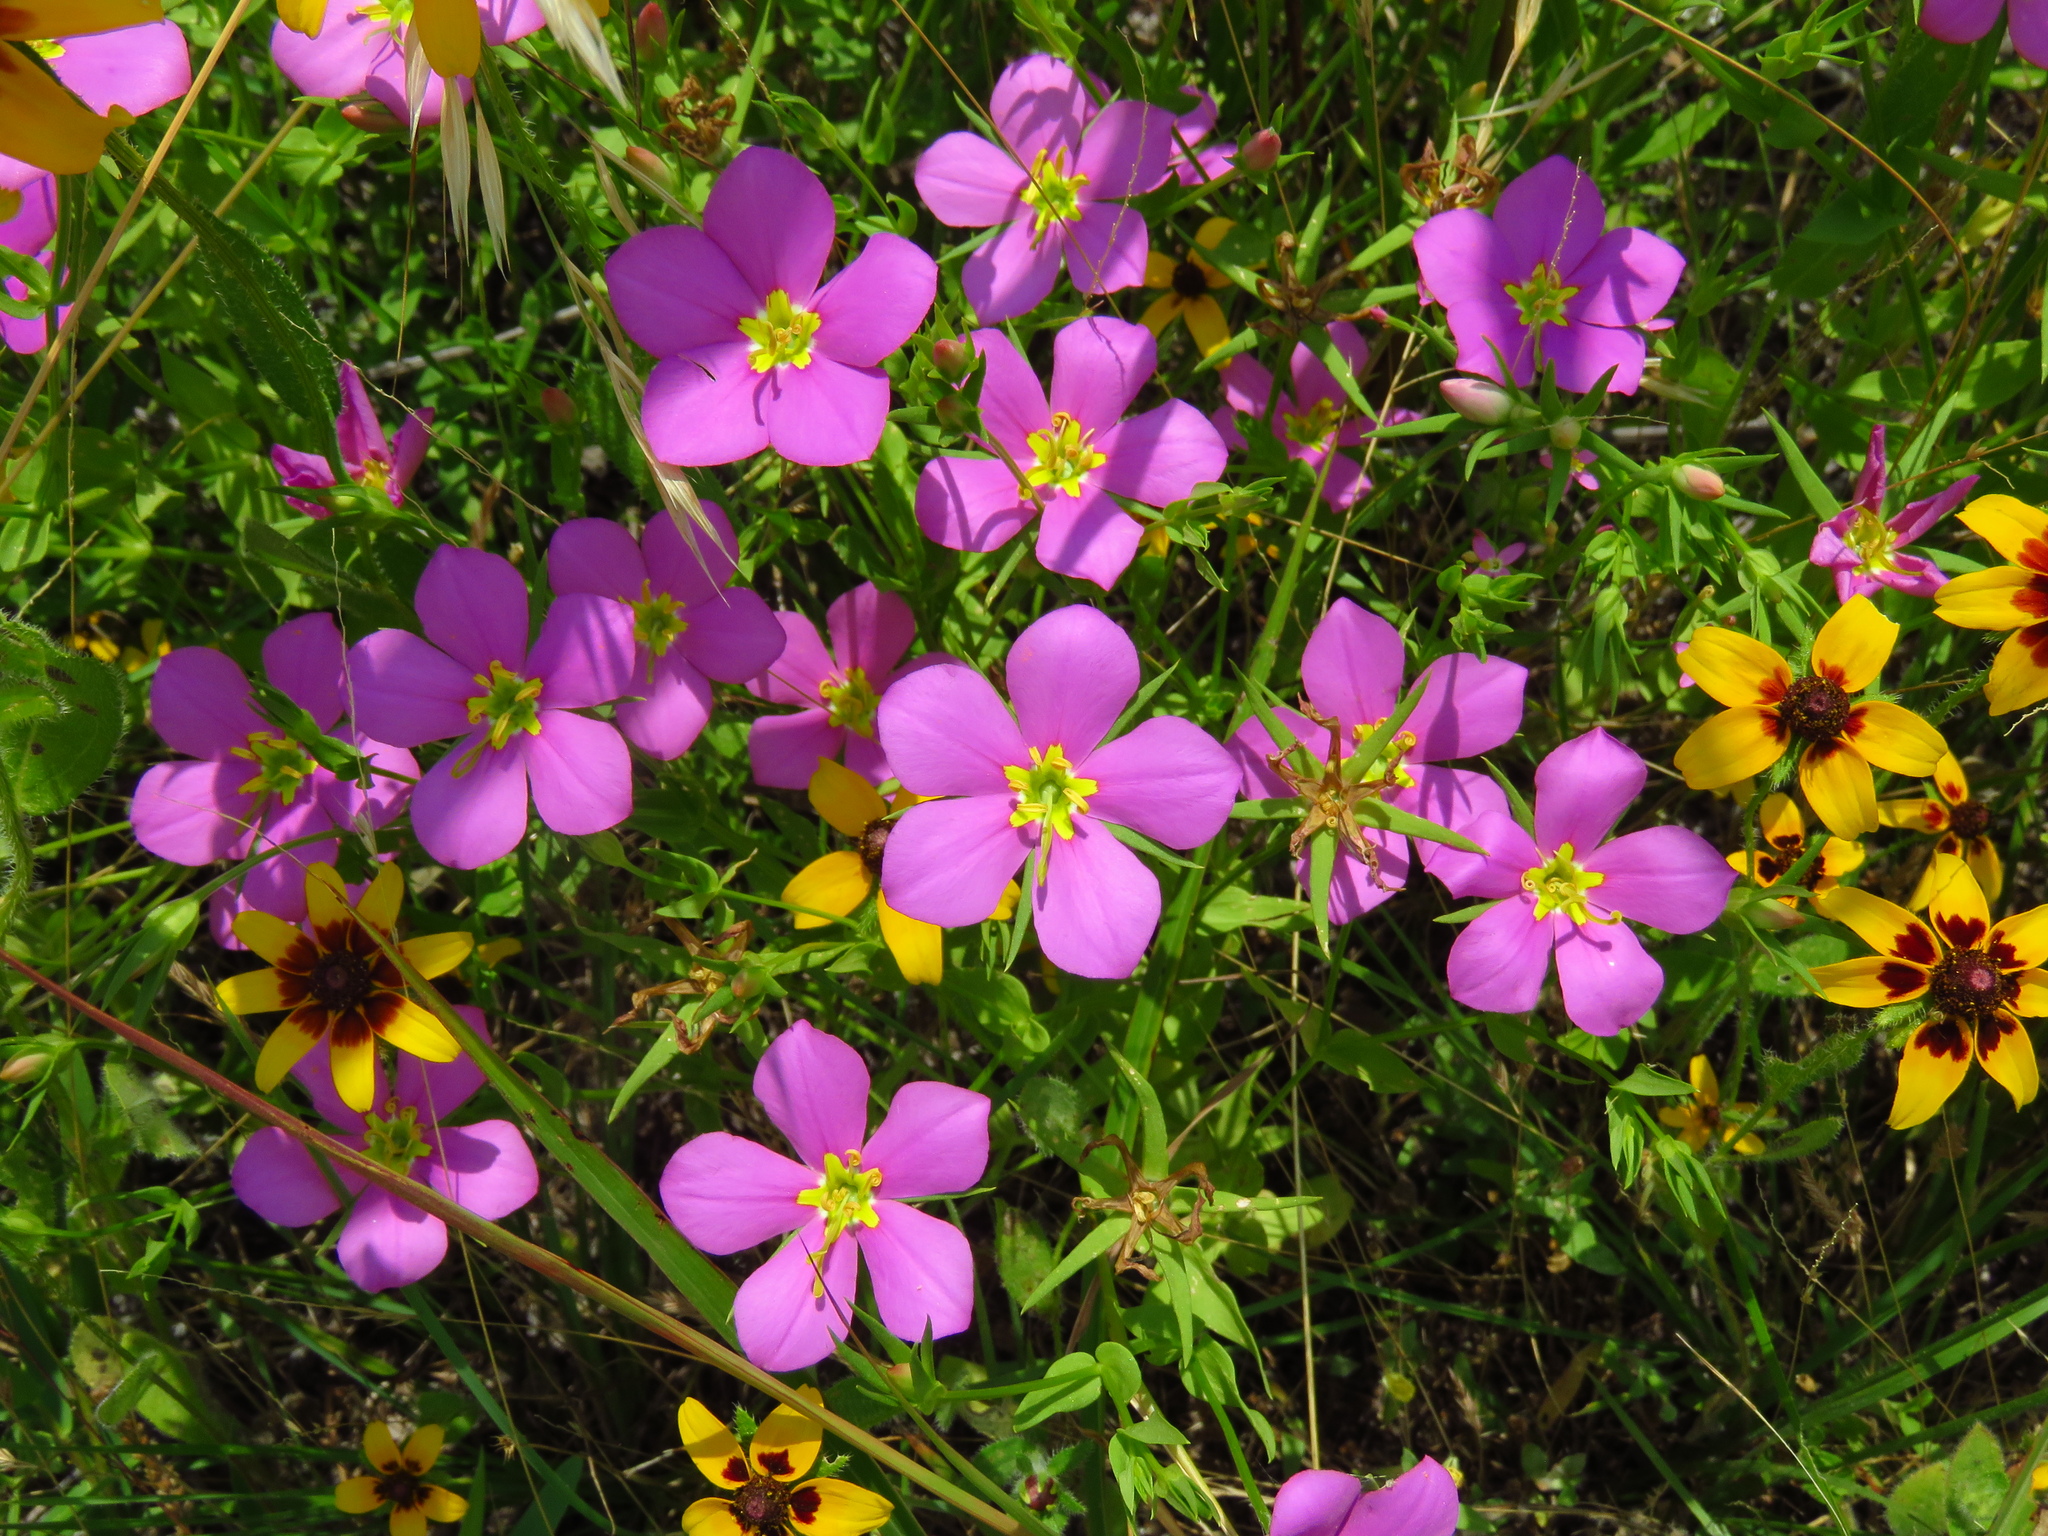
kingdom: Plantae
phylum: Tracheophyta
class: Magnoliopsida
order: Gentianales
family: Gentianaceae
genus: Sabatia
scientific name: Sabatia campestris
